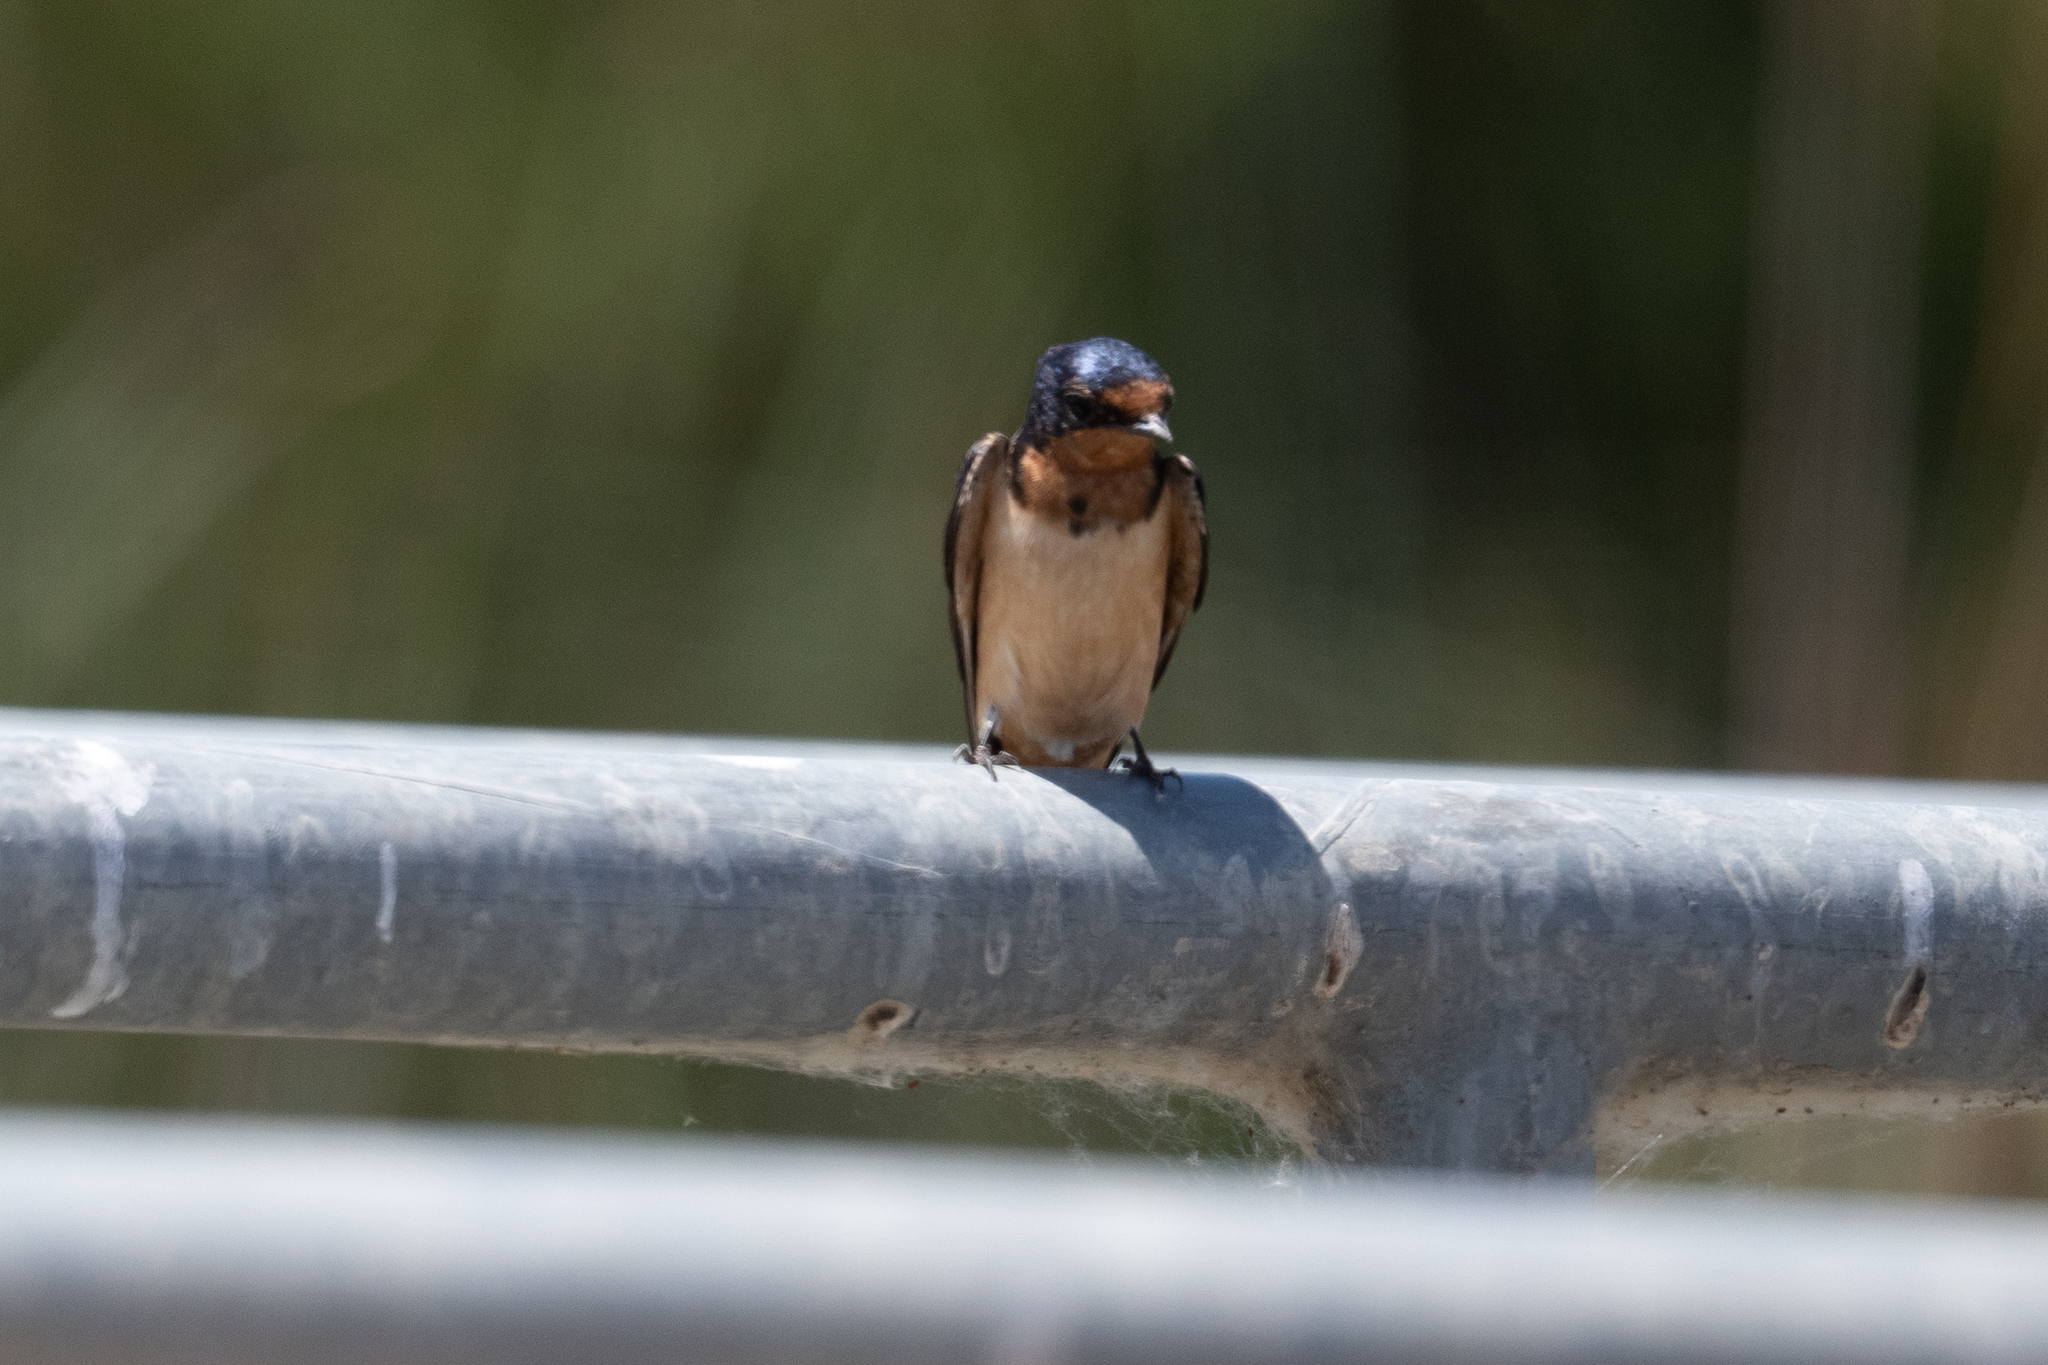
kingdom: Animalia
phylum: Chordata
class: Aves
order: Passeriformes
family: Hirundinidae
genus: Hirundo
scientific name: Hirundo rustica
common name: Barn swallow
